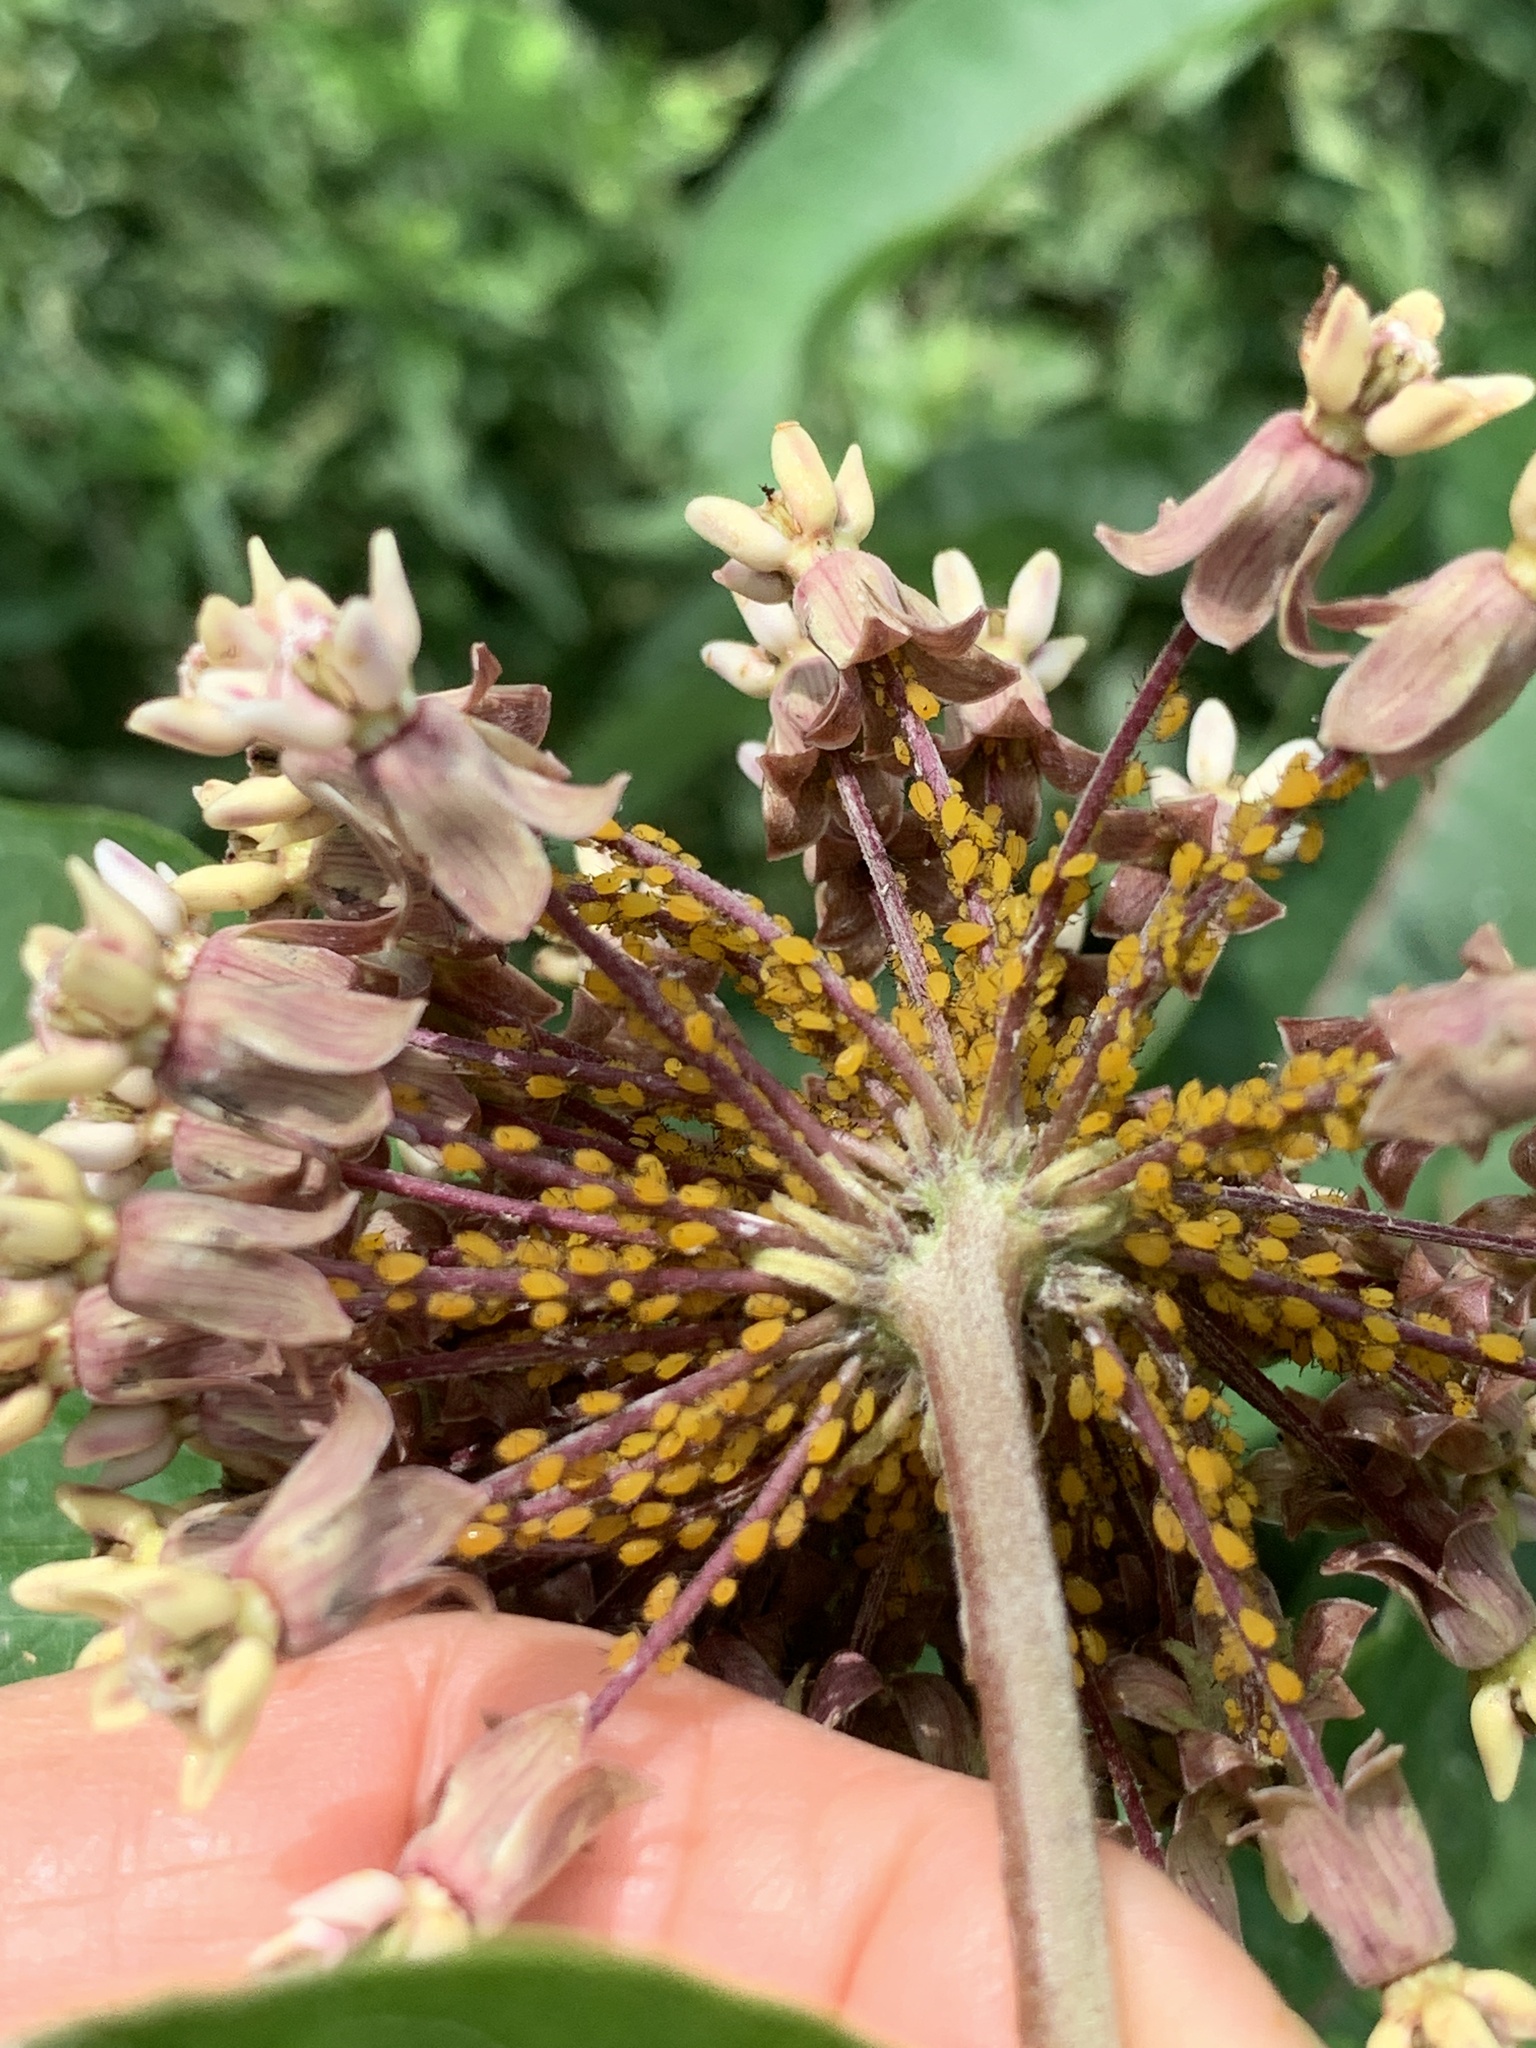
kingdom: Animalia
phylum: Arthropoda
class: Insecta
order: Hemiptera
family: Aphididae
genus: Aphis
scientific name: Aphis nerii
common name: Oleander aphid
